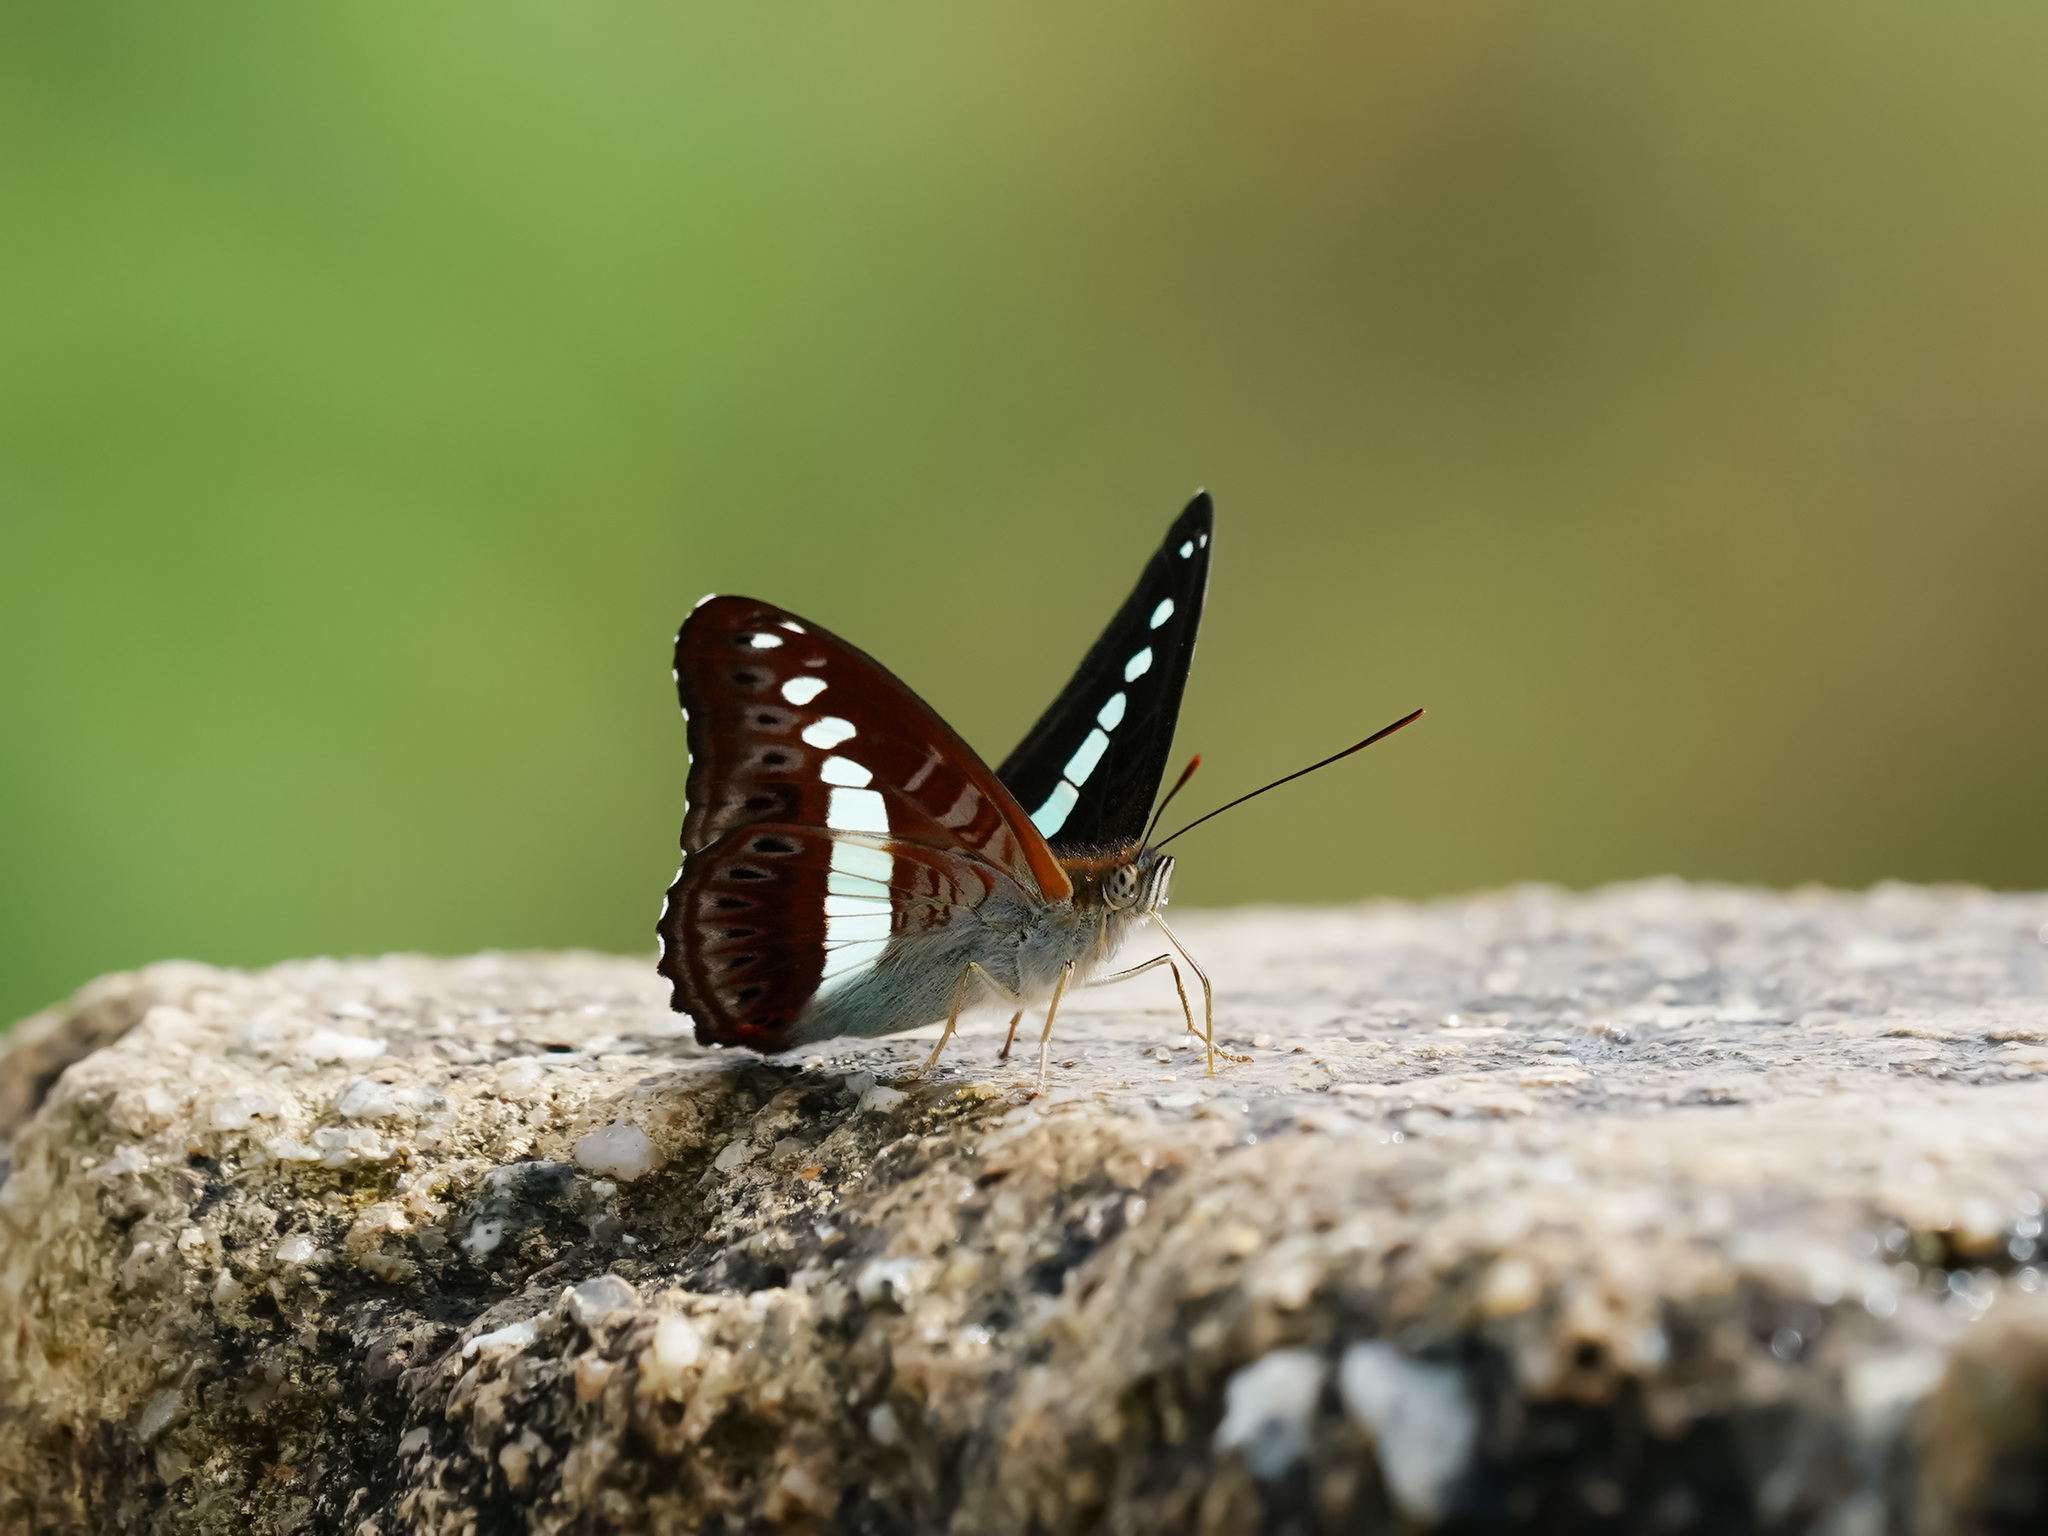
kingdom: Animalia
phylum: Arthropoda
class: Insecta
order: Lepidoptera
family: Nymphalidae
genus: Limenitis
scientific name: Limenitis Sumalia daraxa
